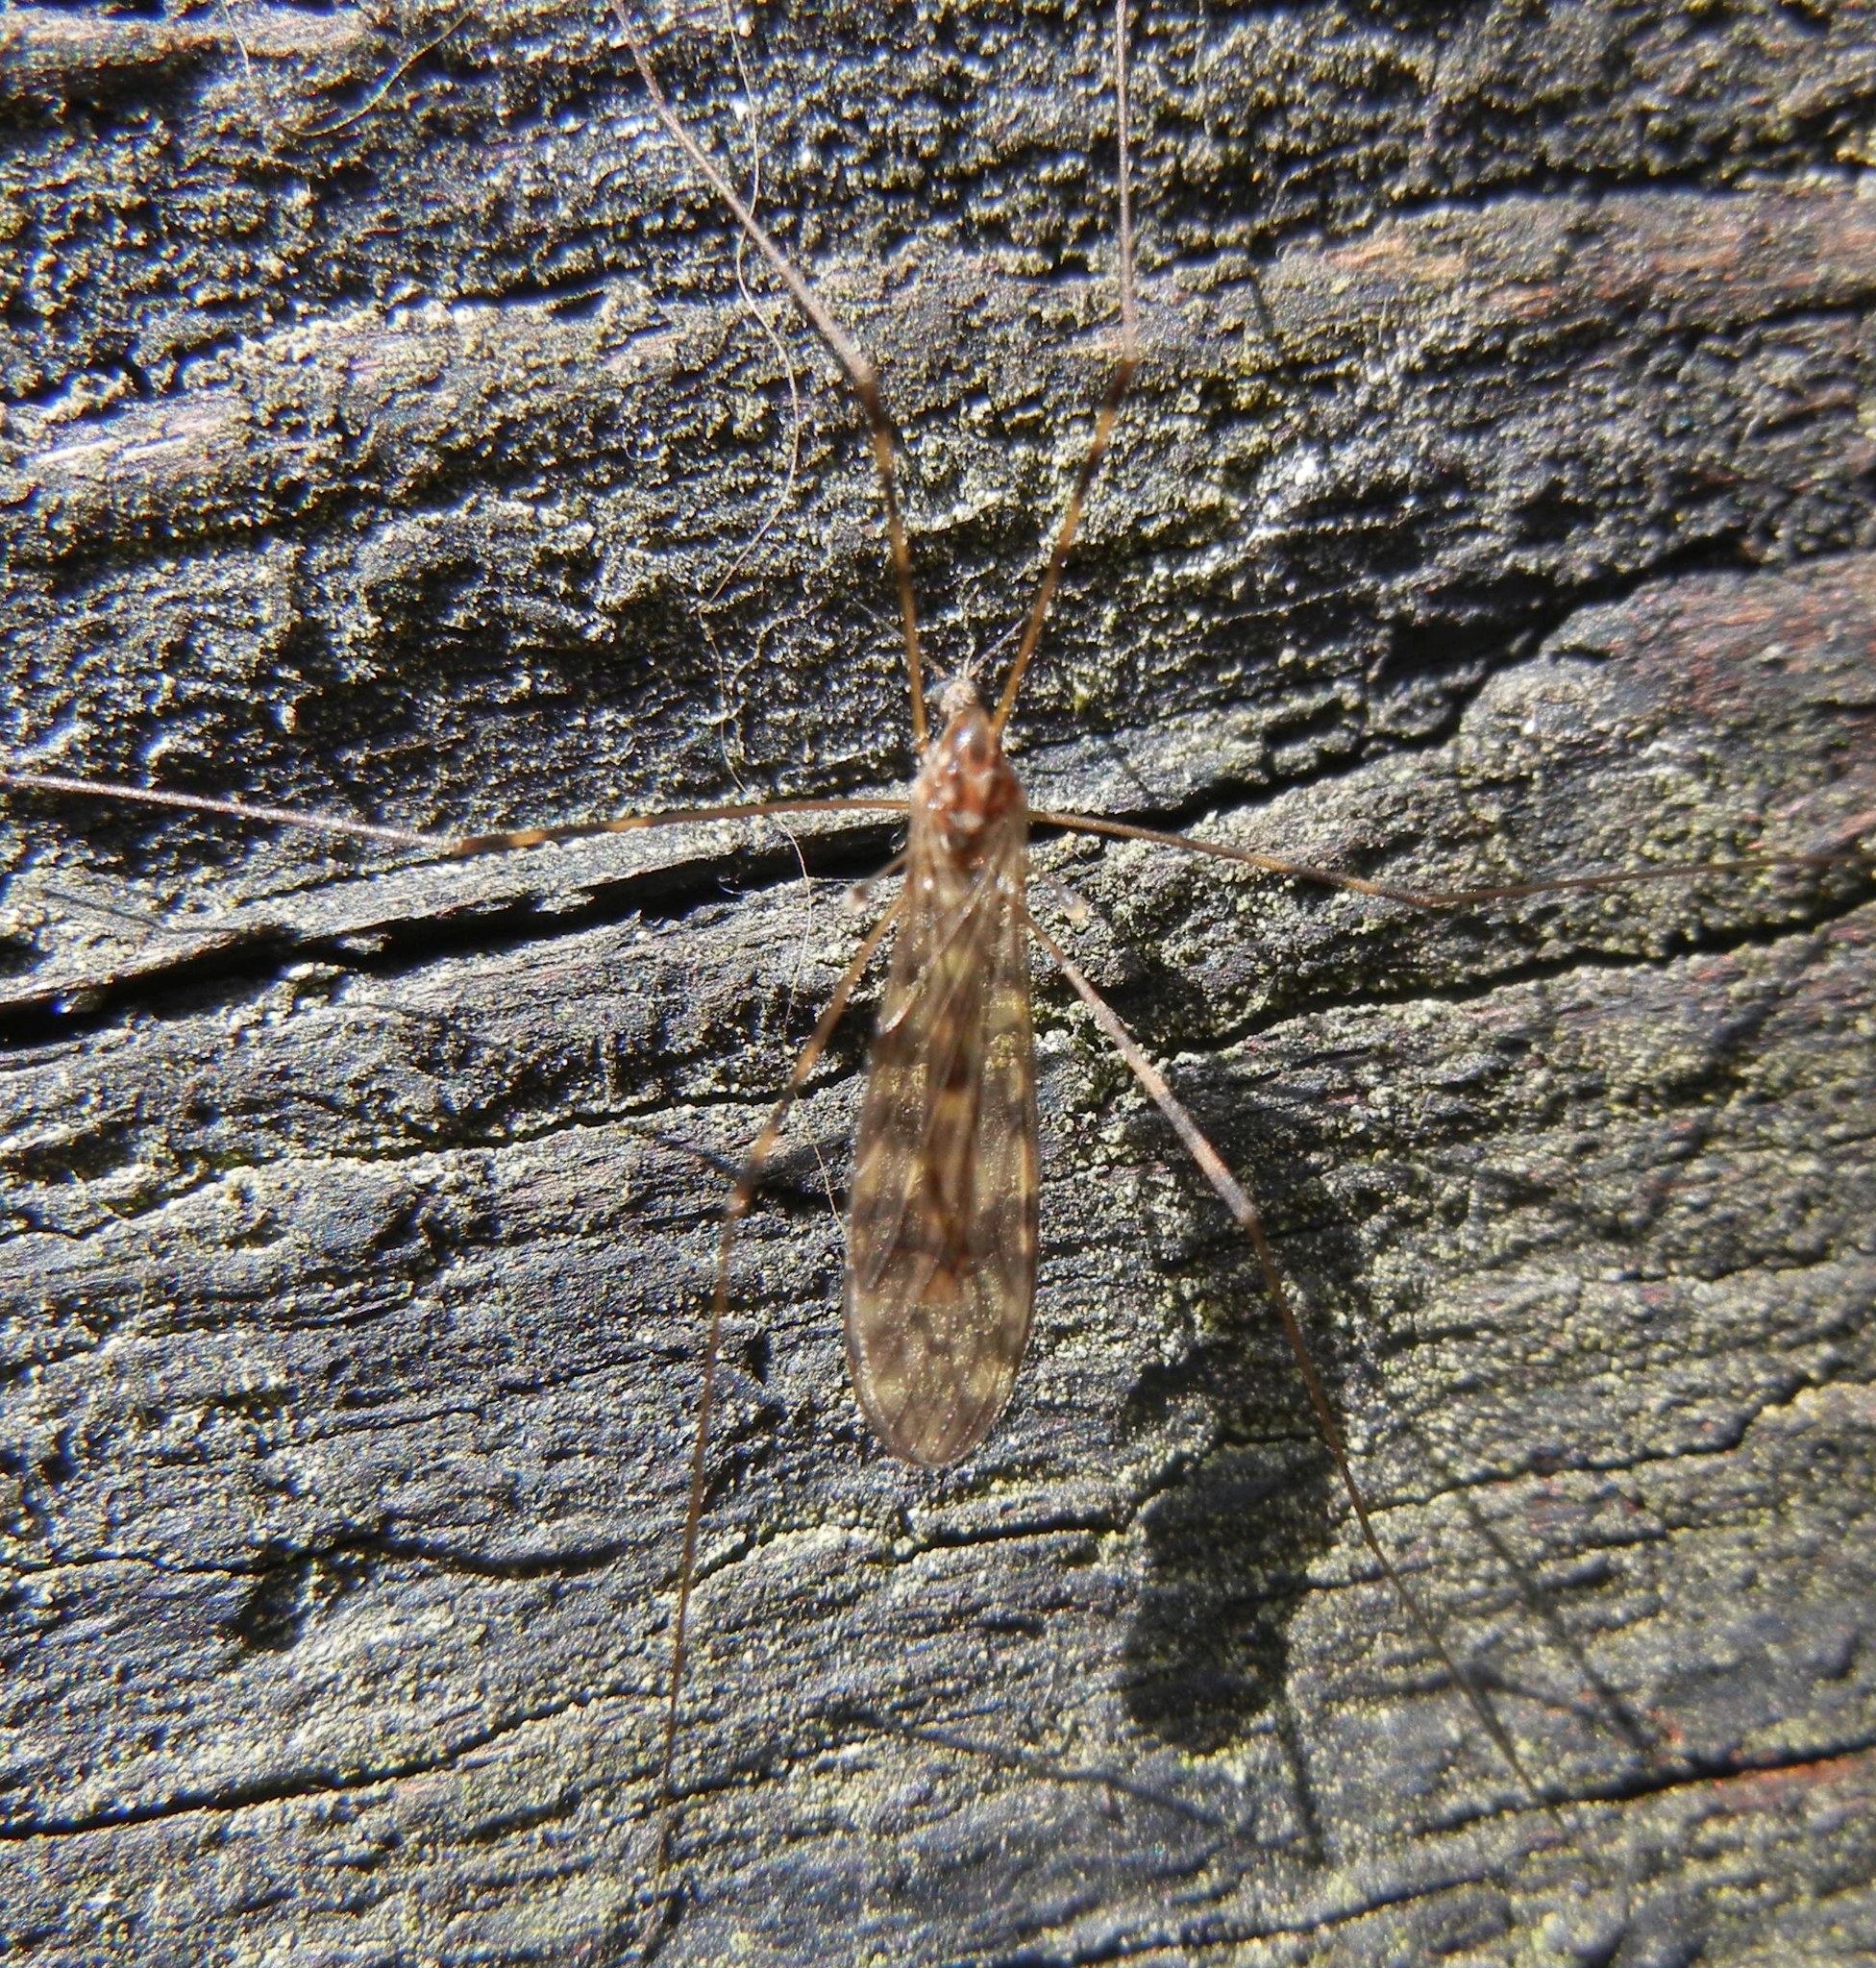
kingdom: Animalia
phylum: Arthropoda
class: Insecta
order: Diptera
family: Limoniidae
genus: Limonia
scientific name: Limonia nubeculosa
